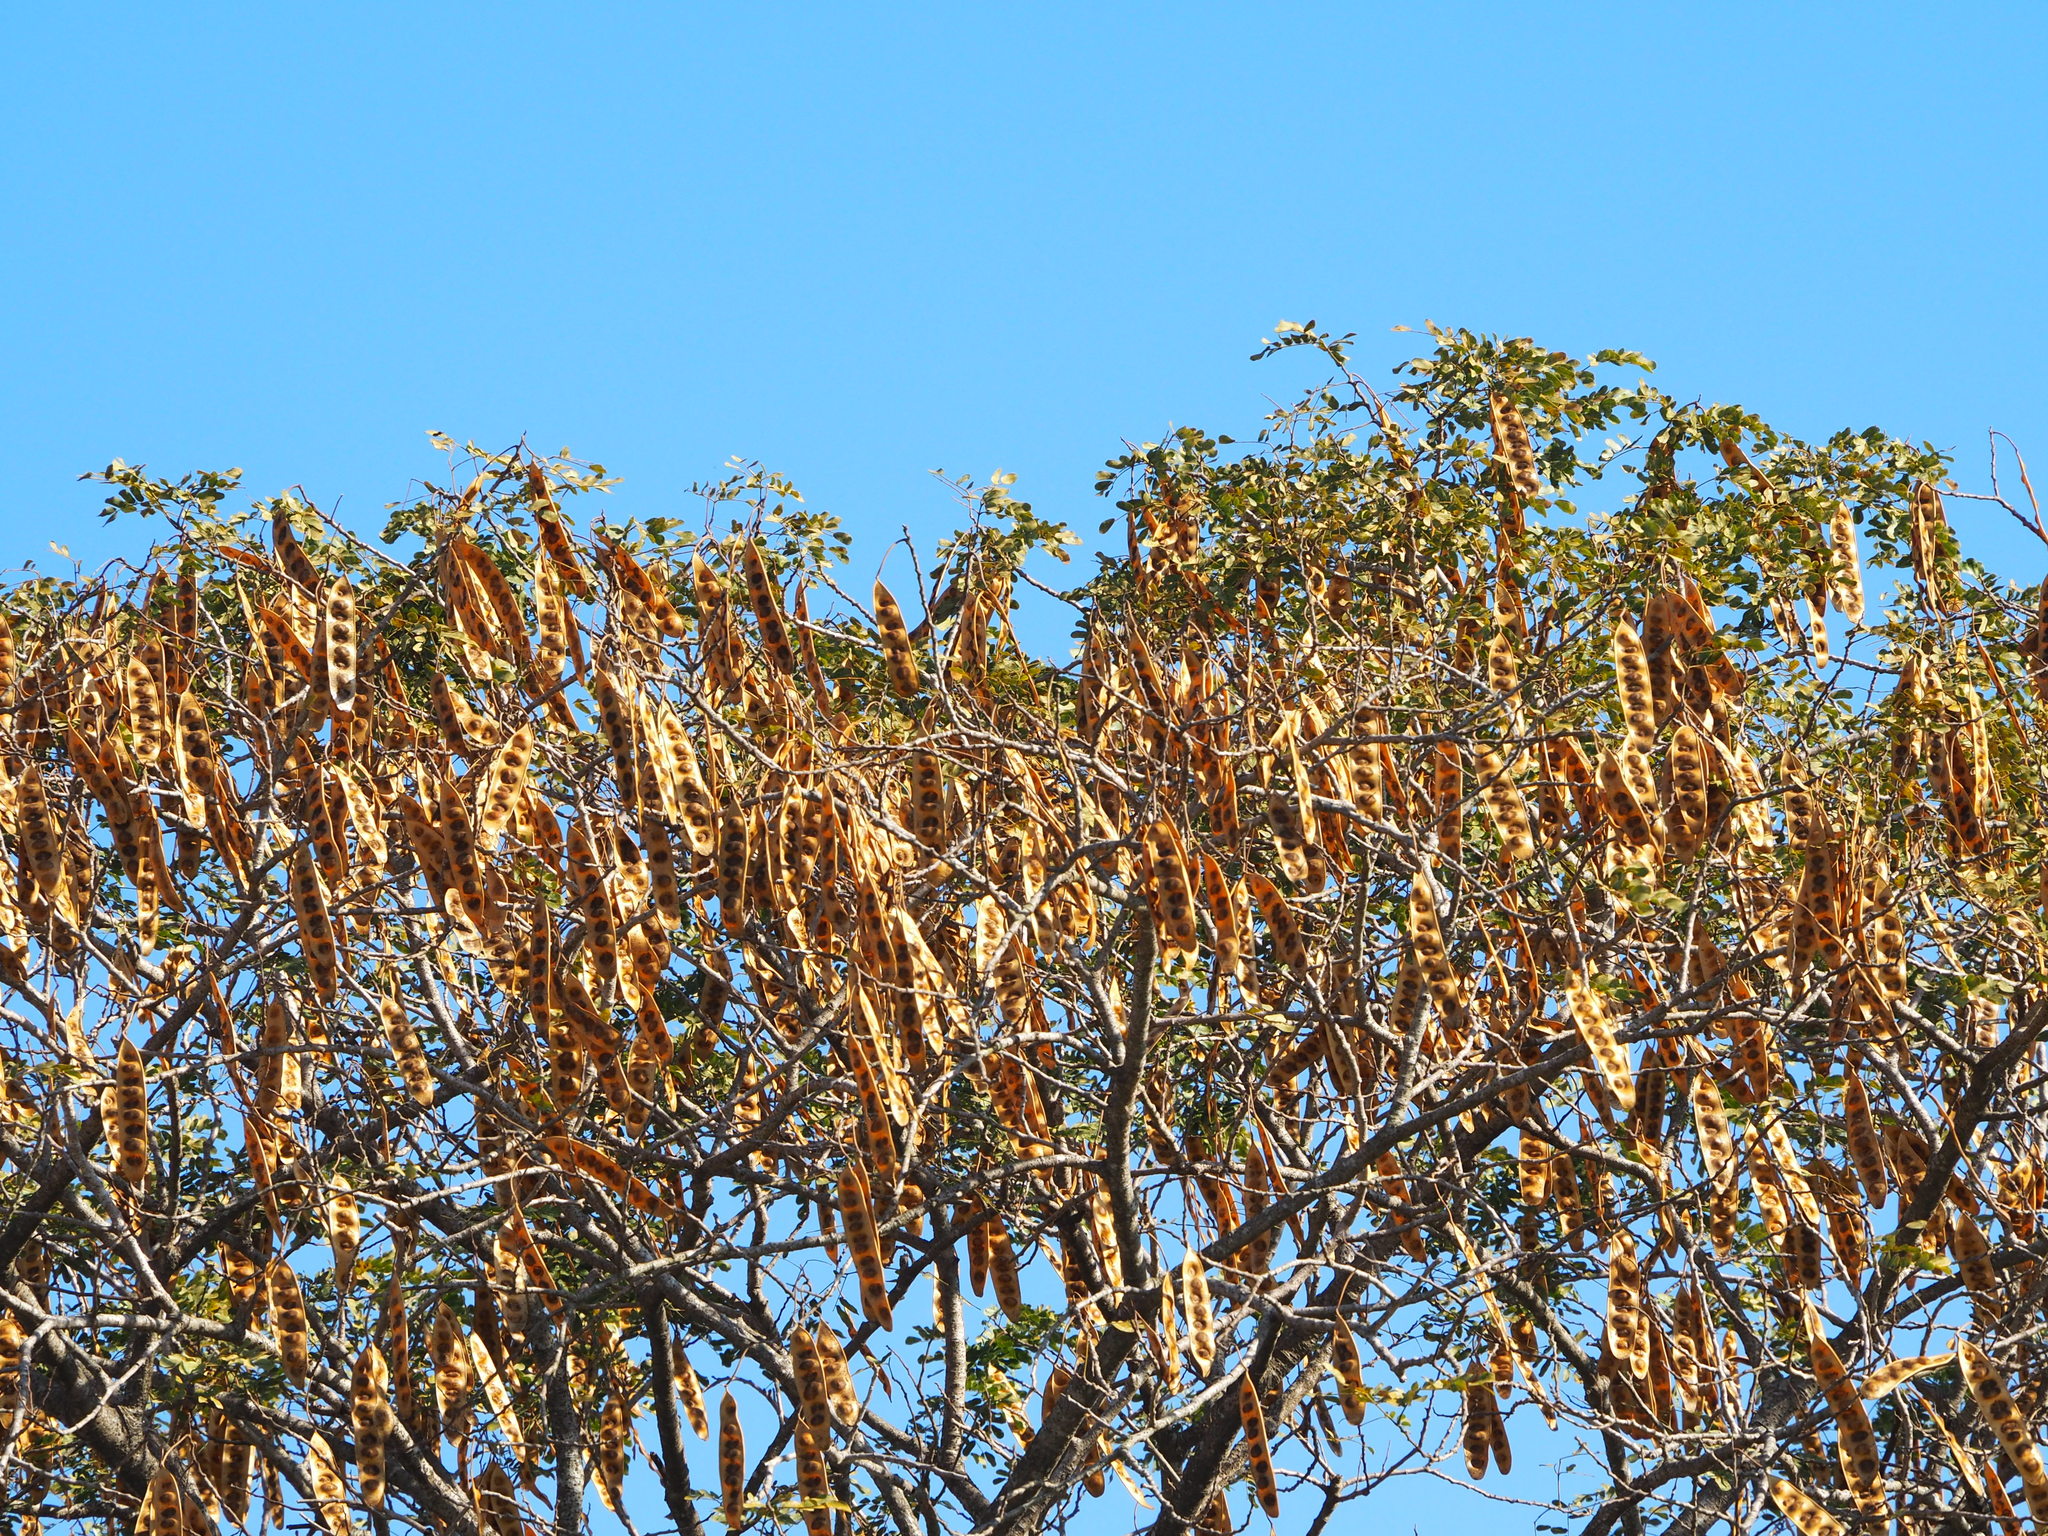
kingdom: Plantae
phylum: Tracheophyta
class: Magnoliopsida
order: Fabales
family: Fabaceae
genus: Albizia
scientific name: Albizia lebbeck
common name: Woman's tongue
